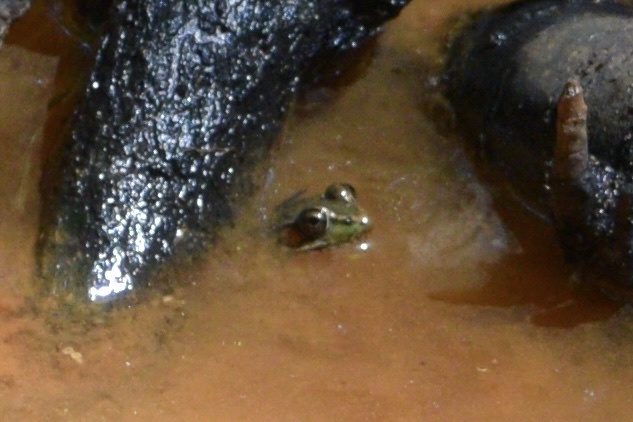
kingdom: Animalia
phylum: Chordata
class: Amphibia
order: Anura
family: Ranidae
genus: Lithobates
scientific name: Lithobates clamitans
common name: Green frog
